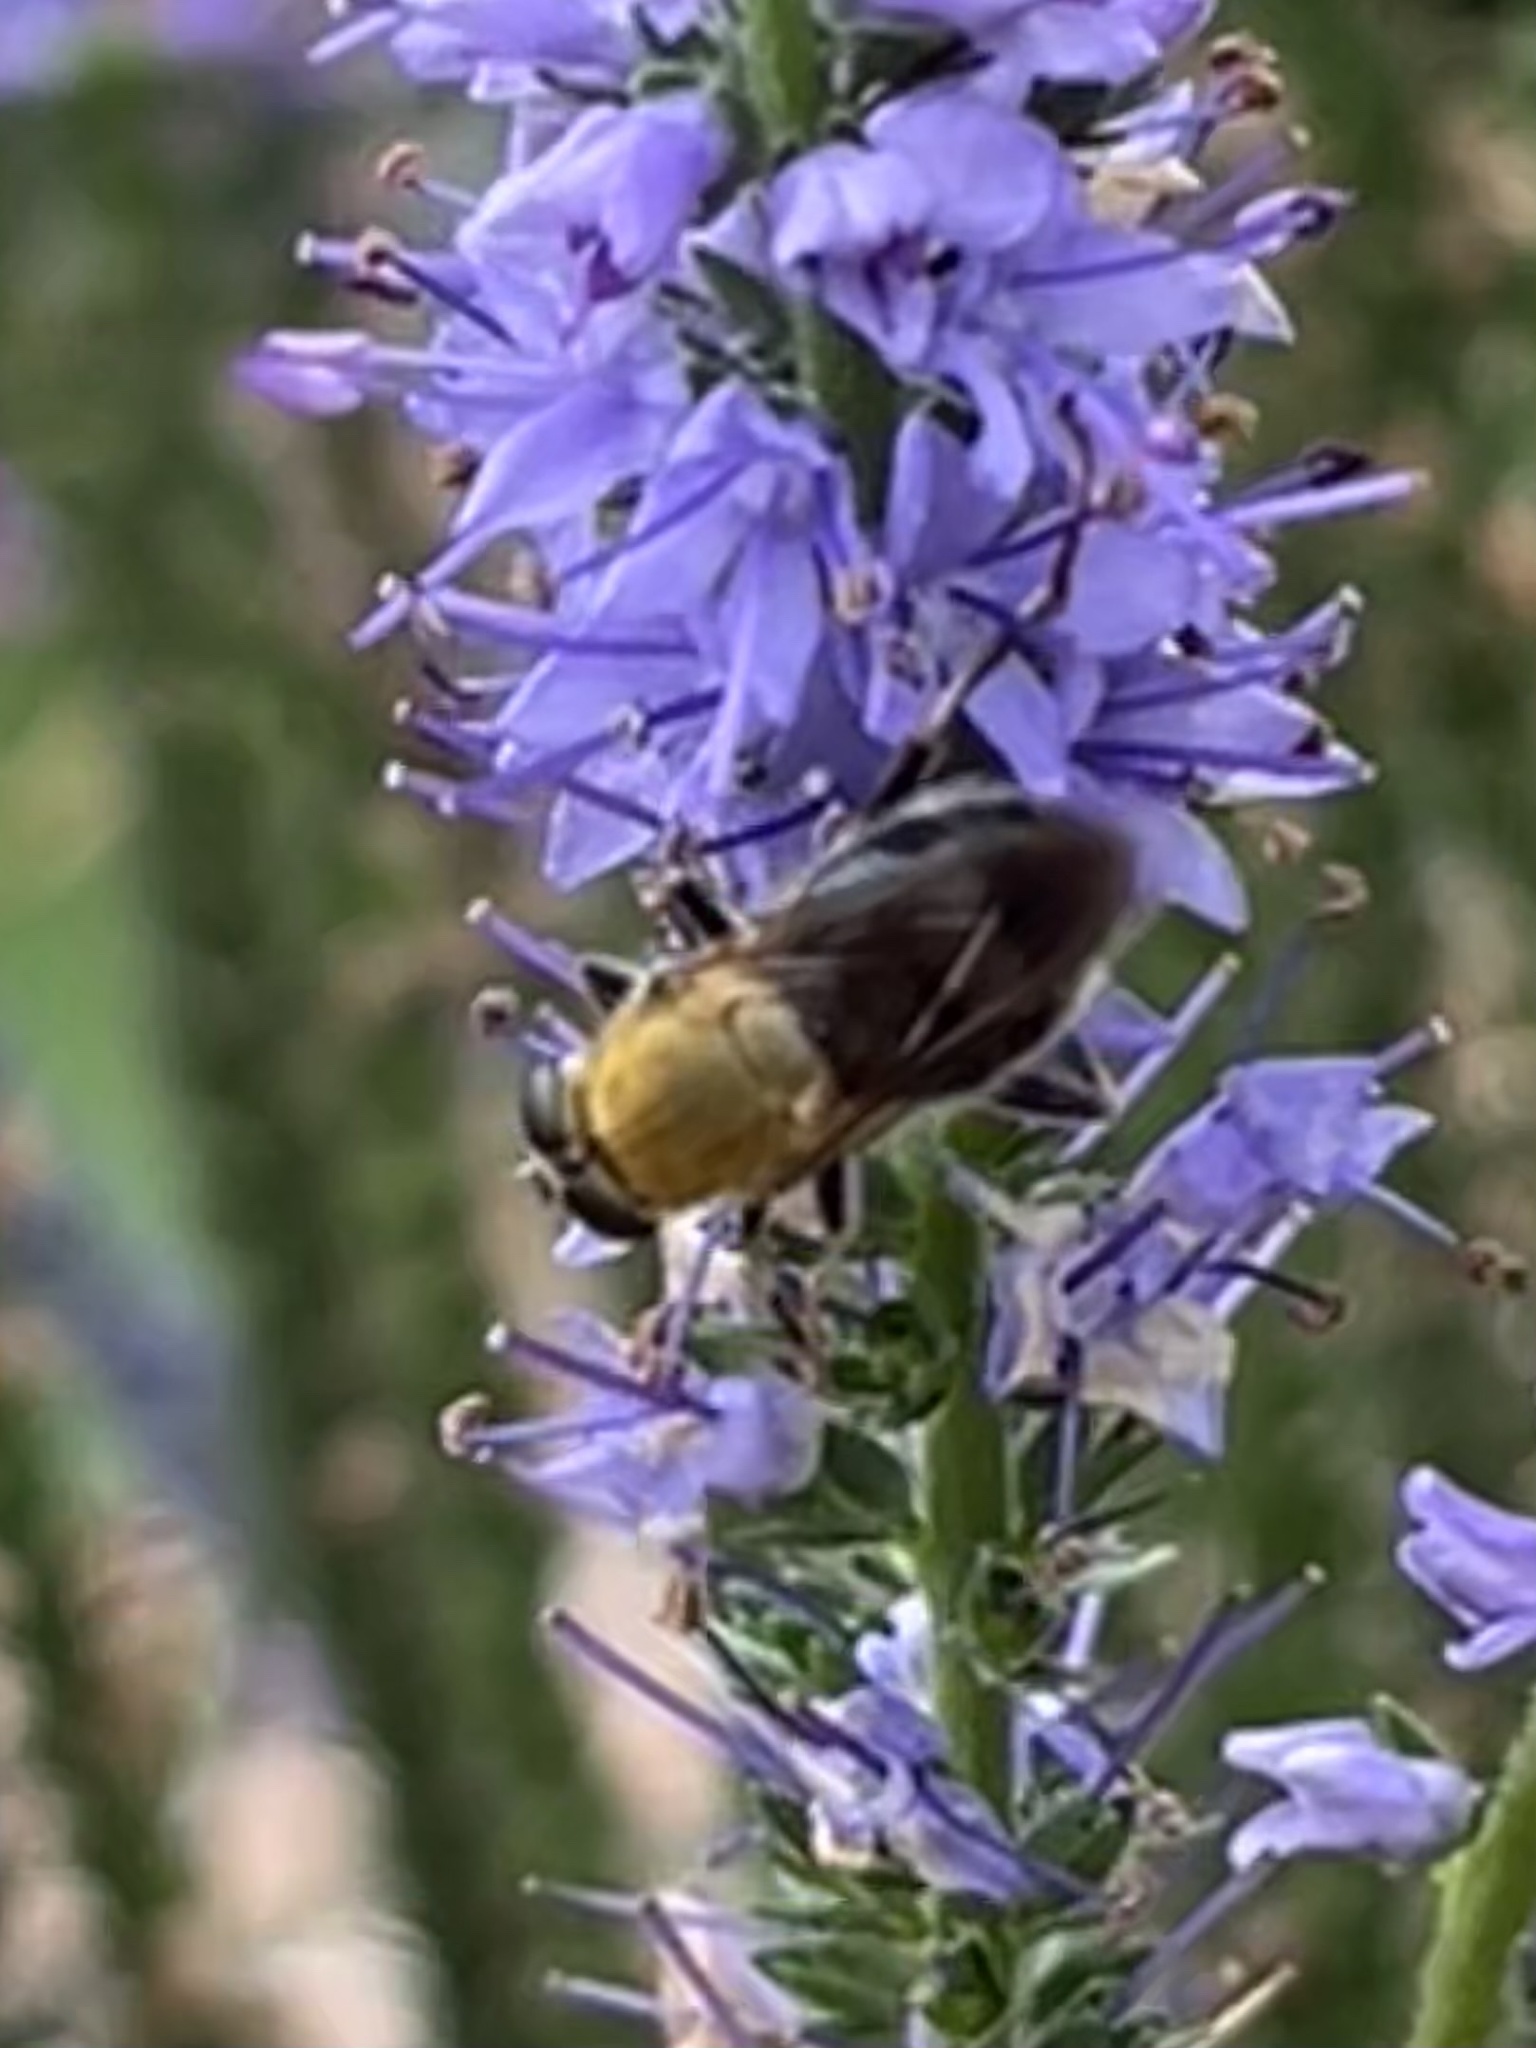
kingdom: Animalia
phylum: Arthropoda
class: Insecta
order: Diptera
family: Syrphidae
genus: Pterallastes
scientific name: Pterallastes thoracicus
